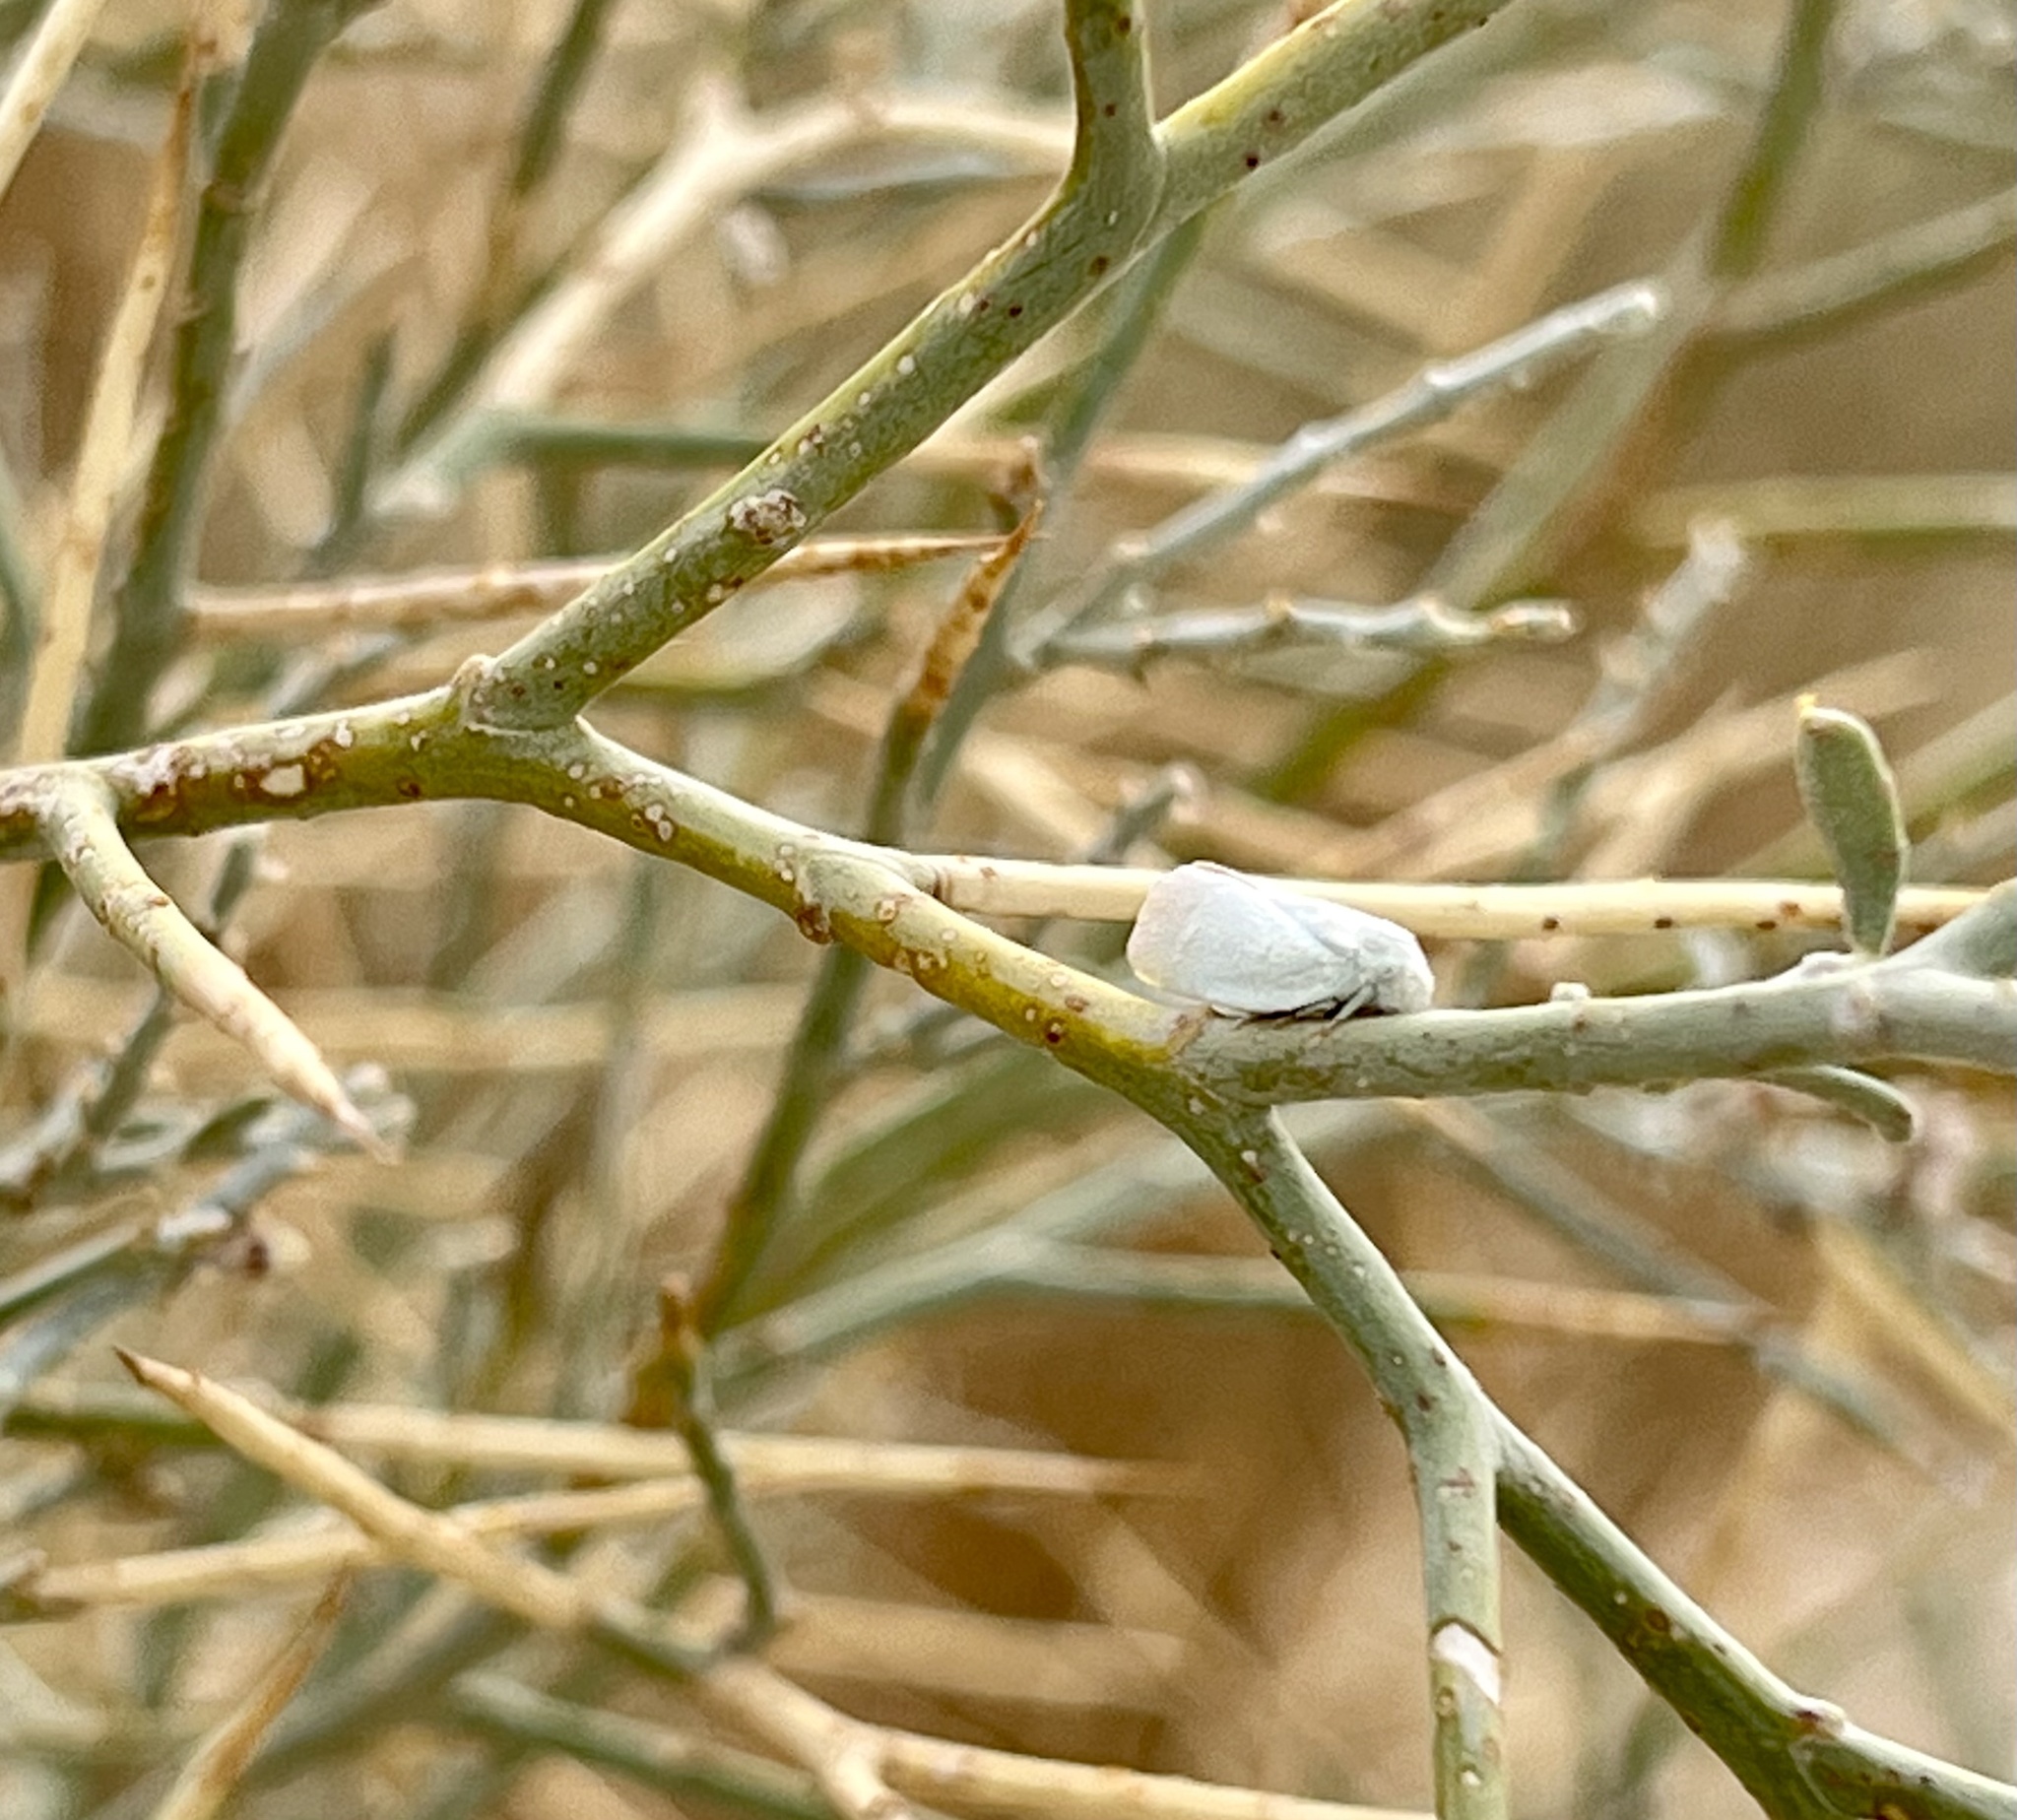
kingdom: Animalia
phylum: Arthropoda
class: Insecta
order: Hemiptera
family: Flatidae
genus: Flatormenis
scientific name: Flatormenis saucia
